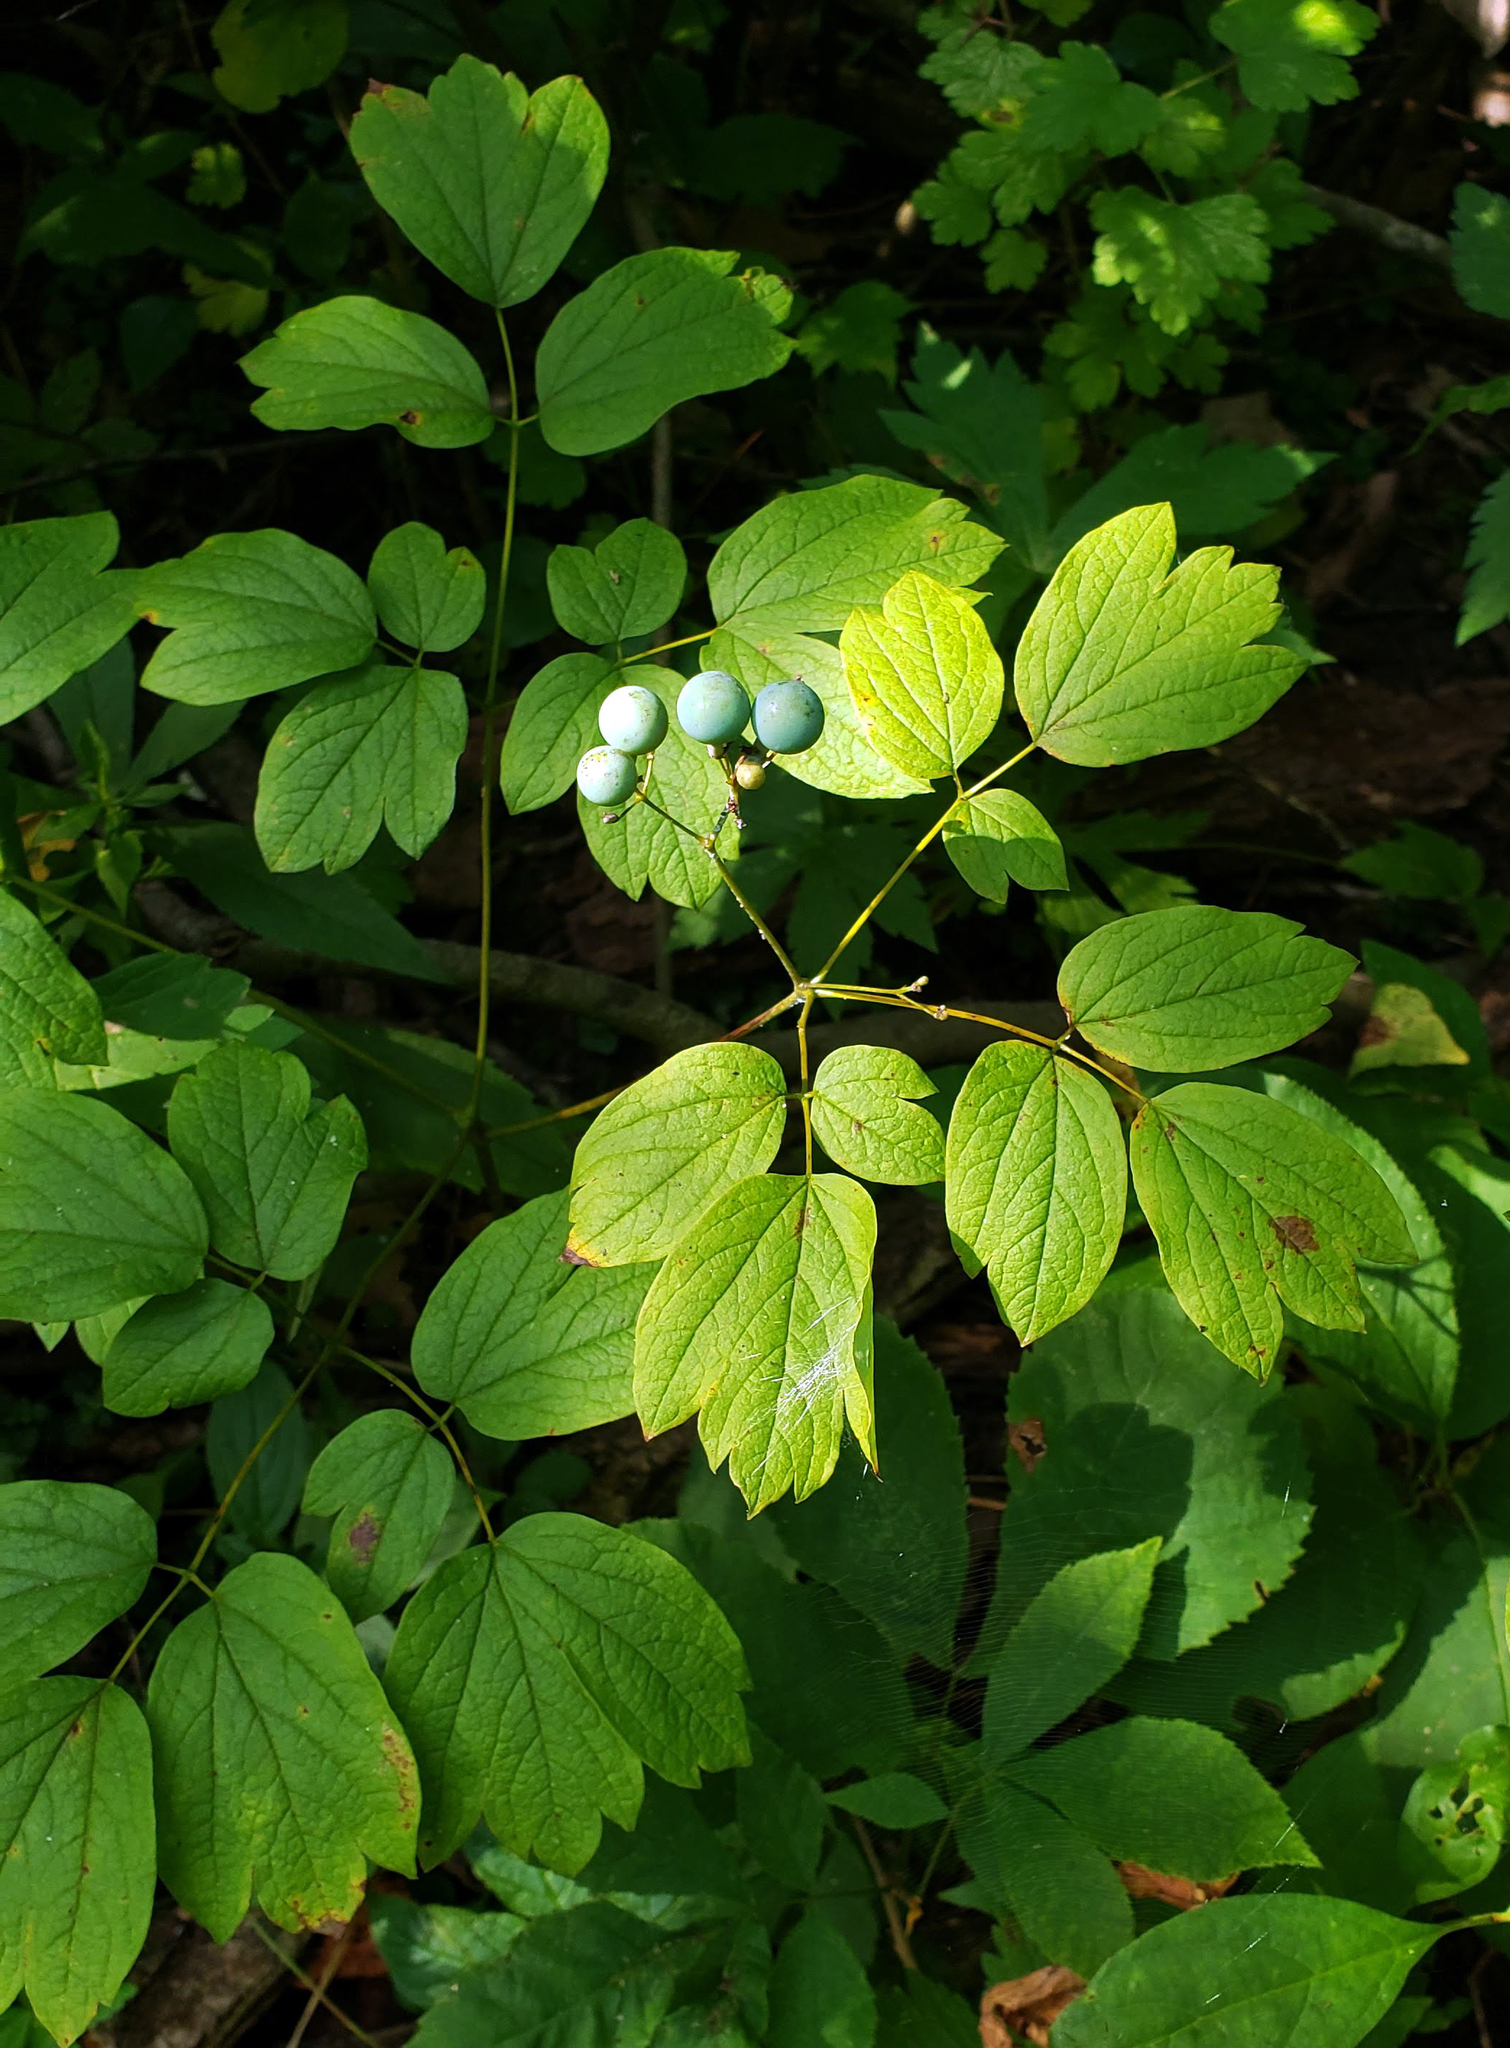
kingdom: Plantae
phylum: Tracheophyta
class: Magnoliopsida
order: Ranunculales
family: Berberidaceae
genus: Caulophyllum
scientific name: Caulophyllum thalictroides
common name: Blue cohosh
